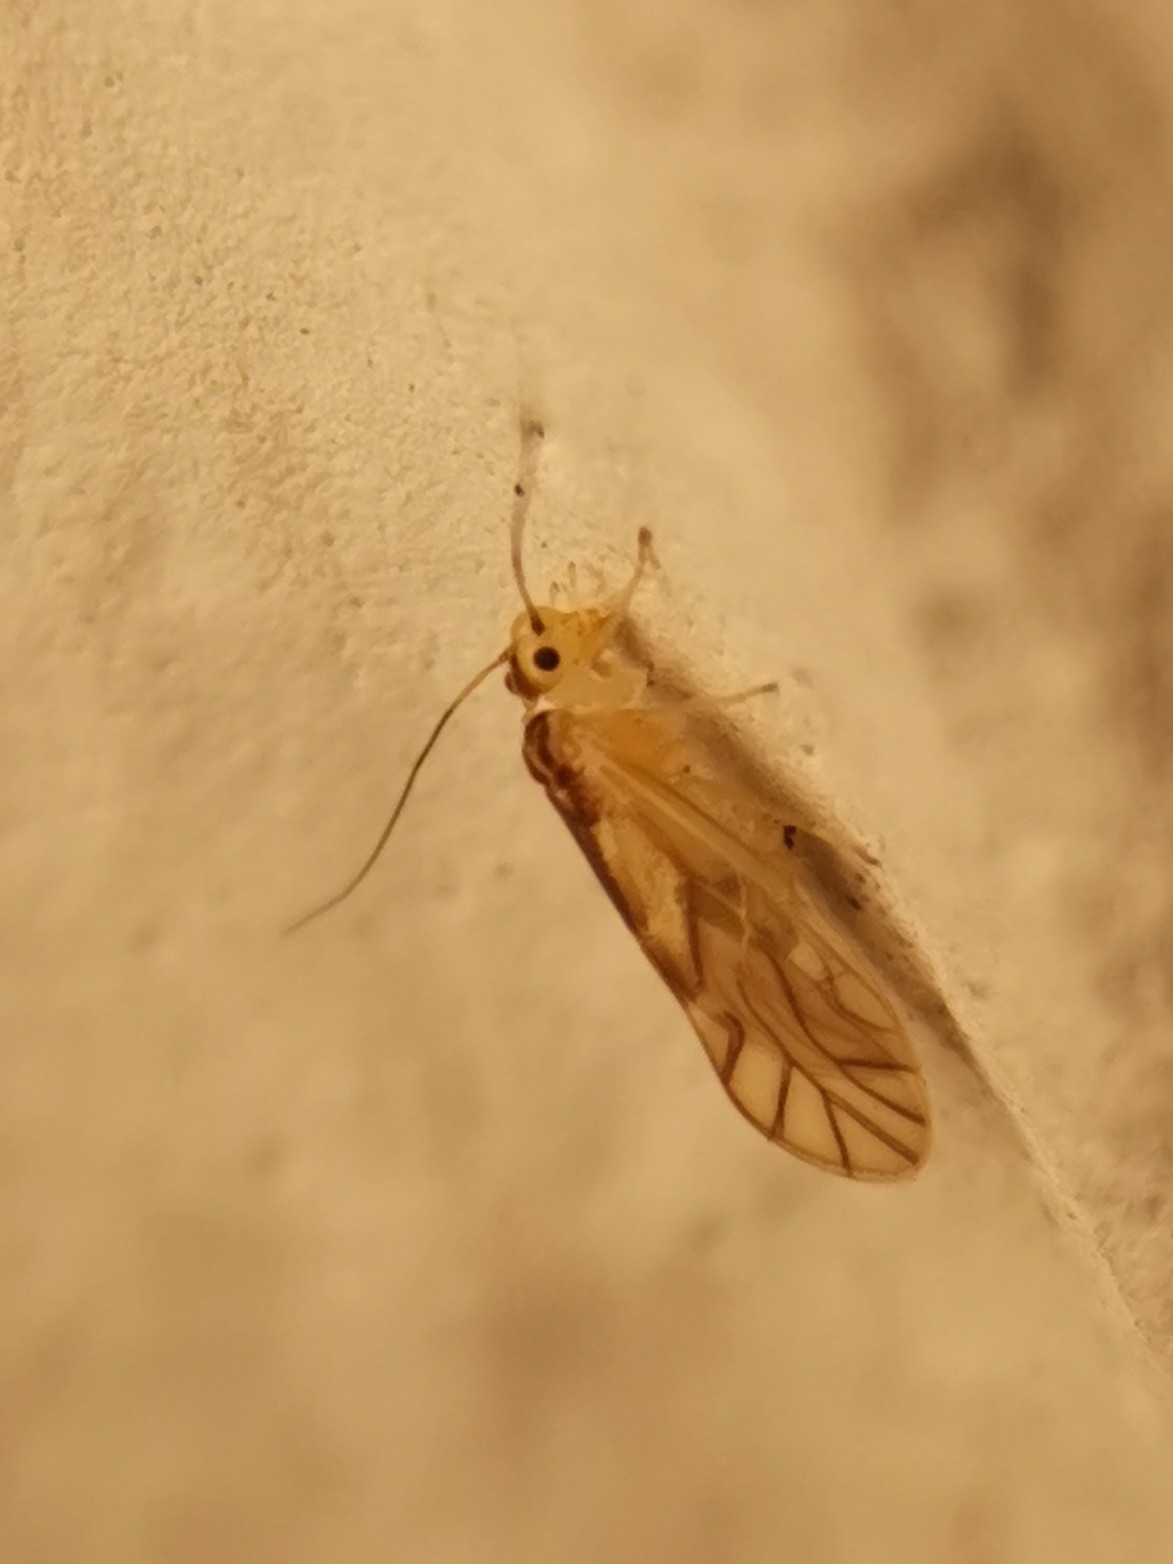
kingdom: Animalia
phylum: Arthropoda
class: Insecta
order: Psocodea
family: Caeciliusidae
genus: Valenzuela
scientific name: Valenzuela flavidus
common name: Yellow barklouse
